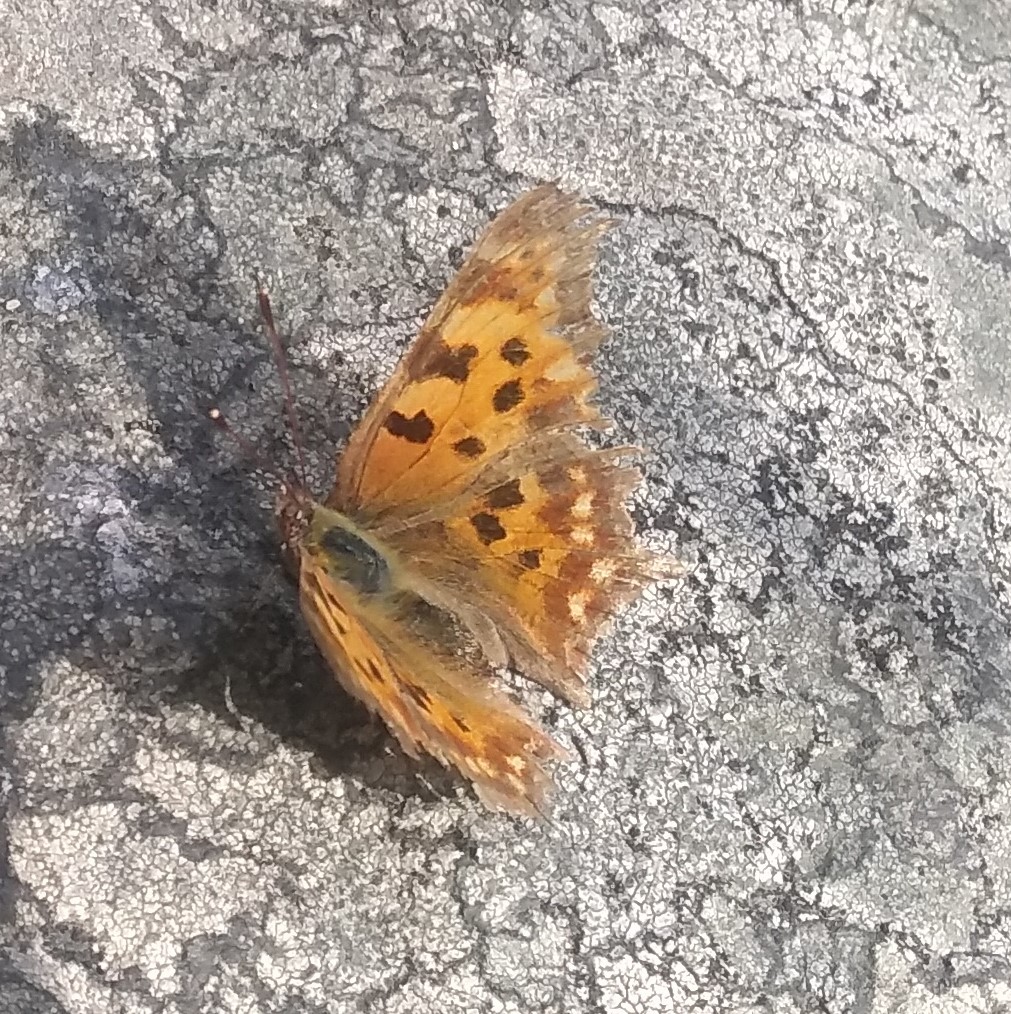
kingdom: Animalia
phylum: Arthropoda
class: Insecta
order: Lepidoptera
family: Nymphalidae
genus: Polygonia
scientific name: Polygonia c-album
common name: Comma
